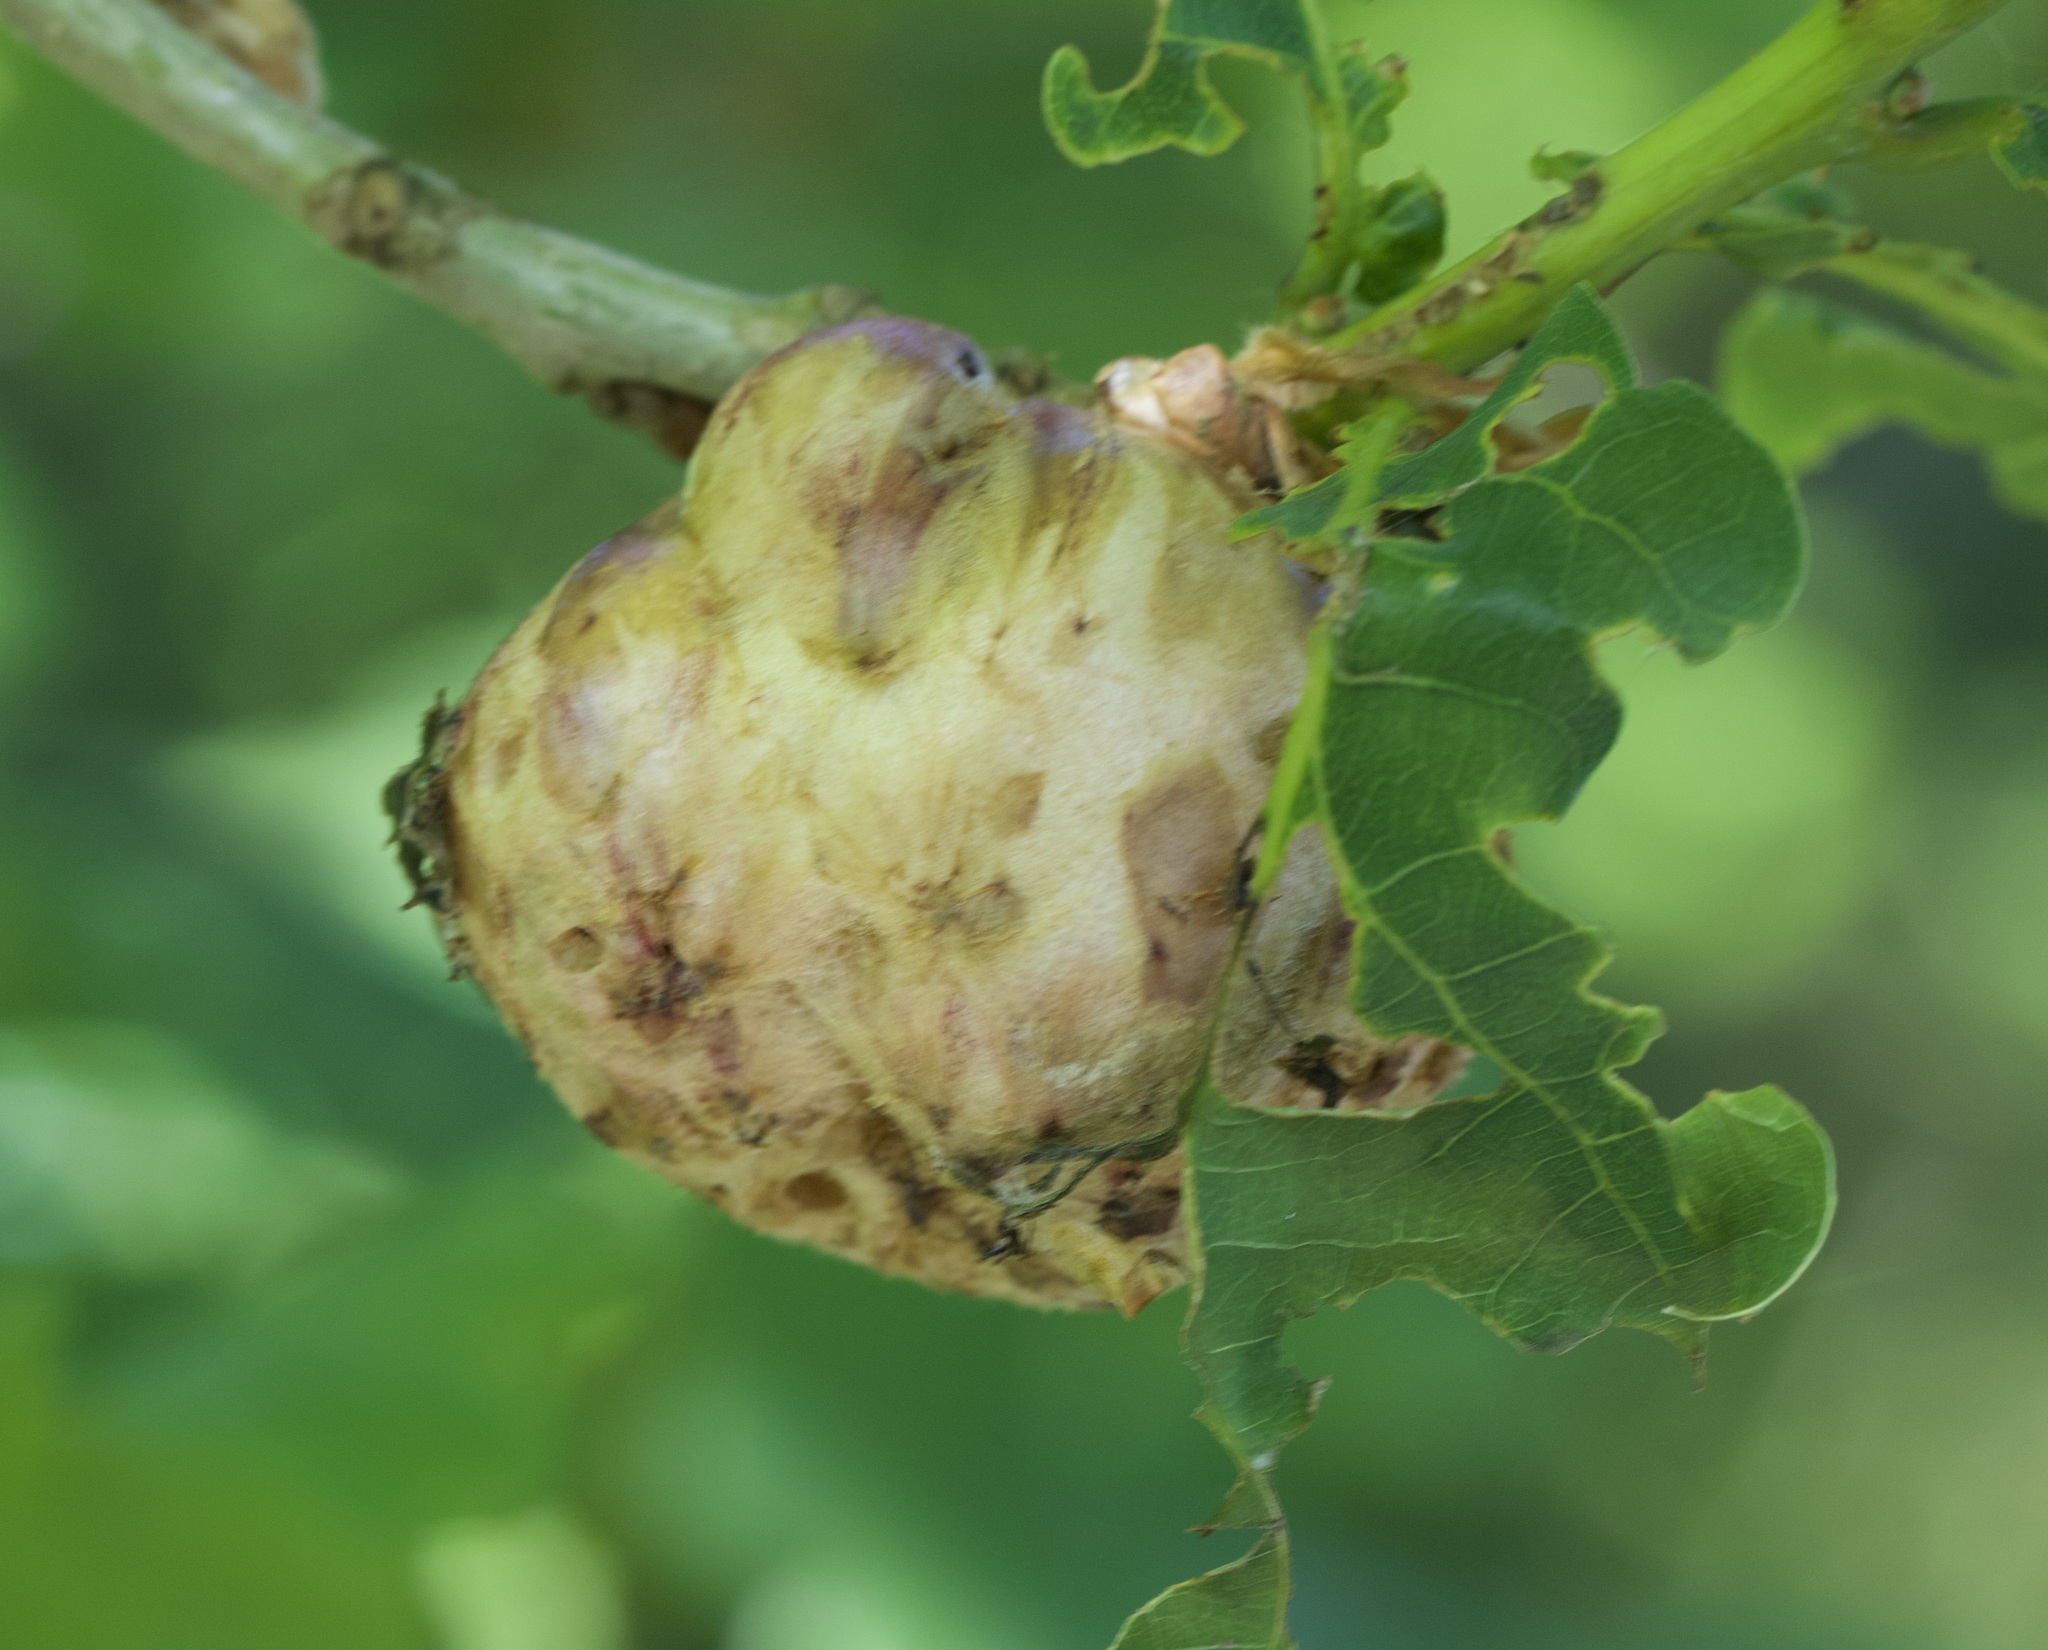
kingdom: Animalia
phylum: Arthropoda
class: Insecta
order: Hymenoptera
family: Cynipidae
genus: Biorhiza
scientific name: Biorhiza pallida
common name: Oak apple
